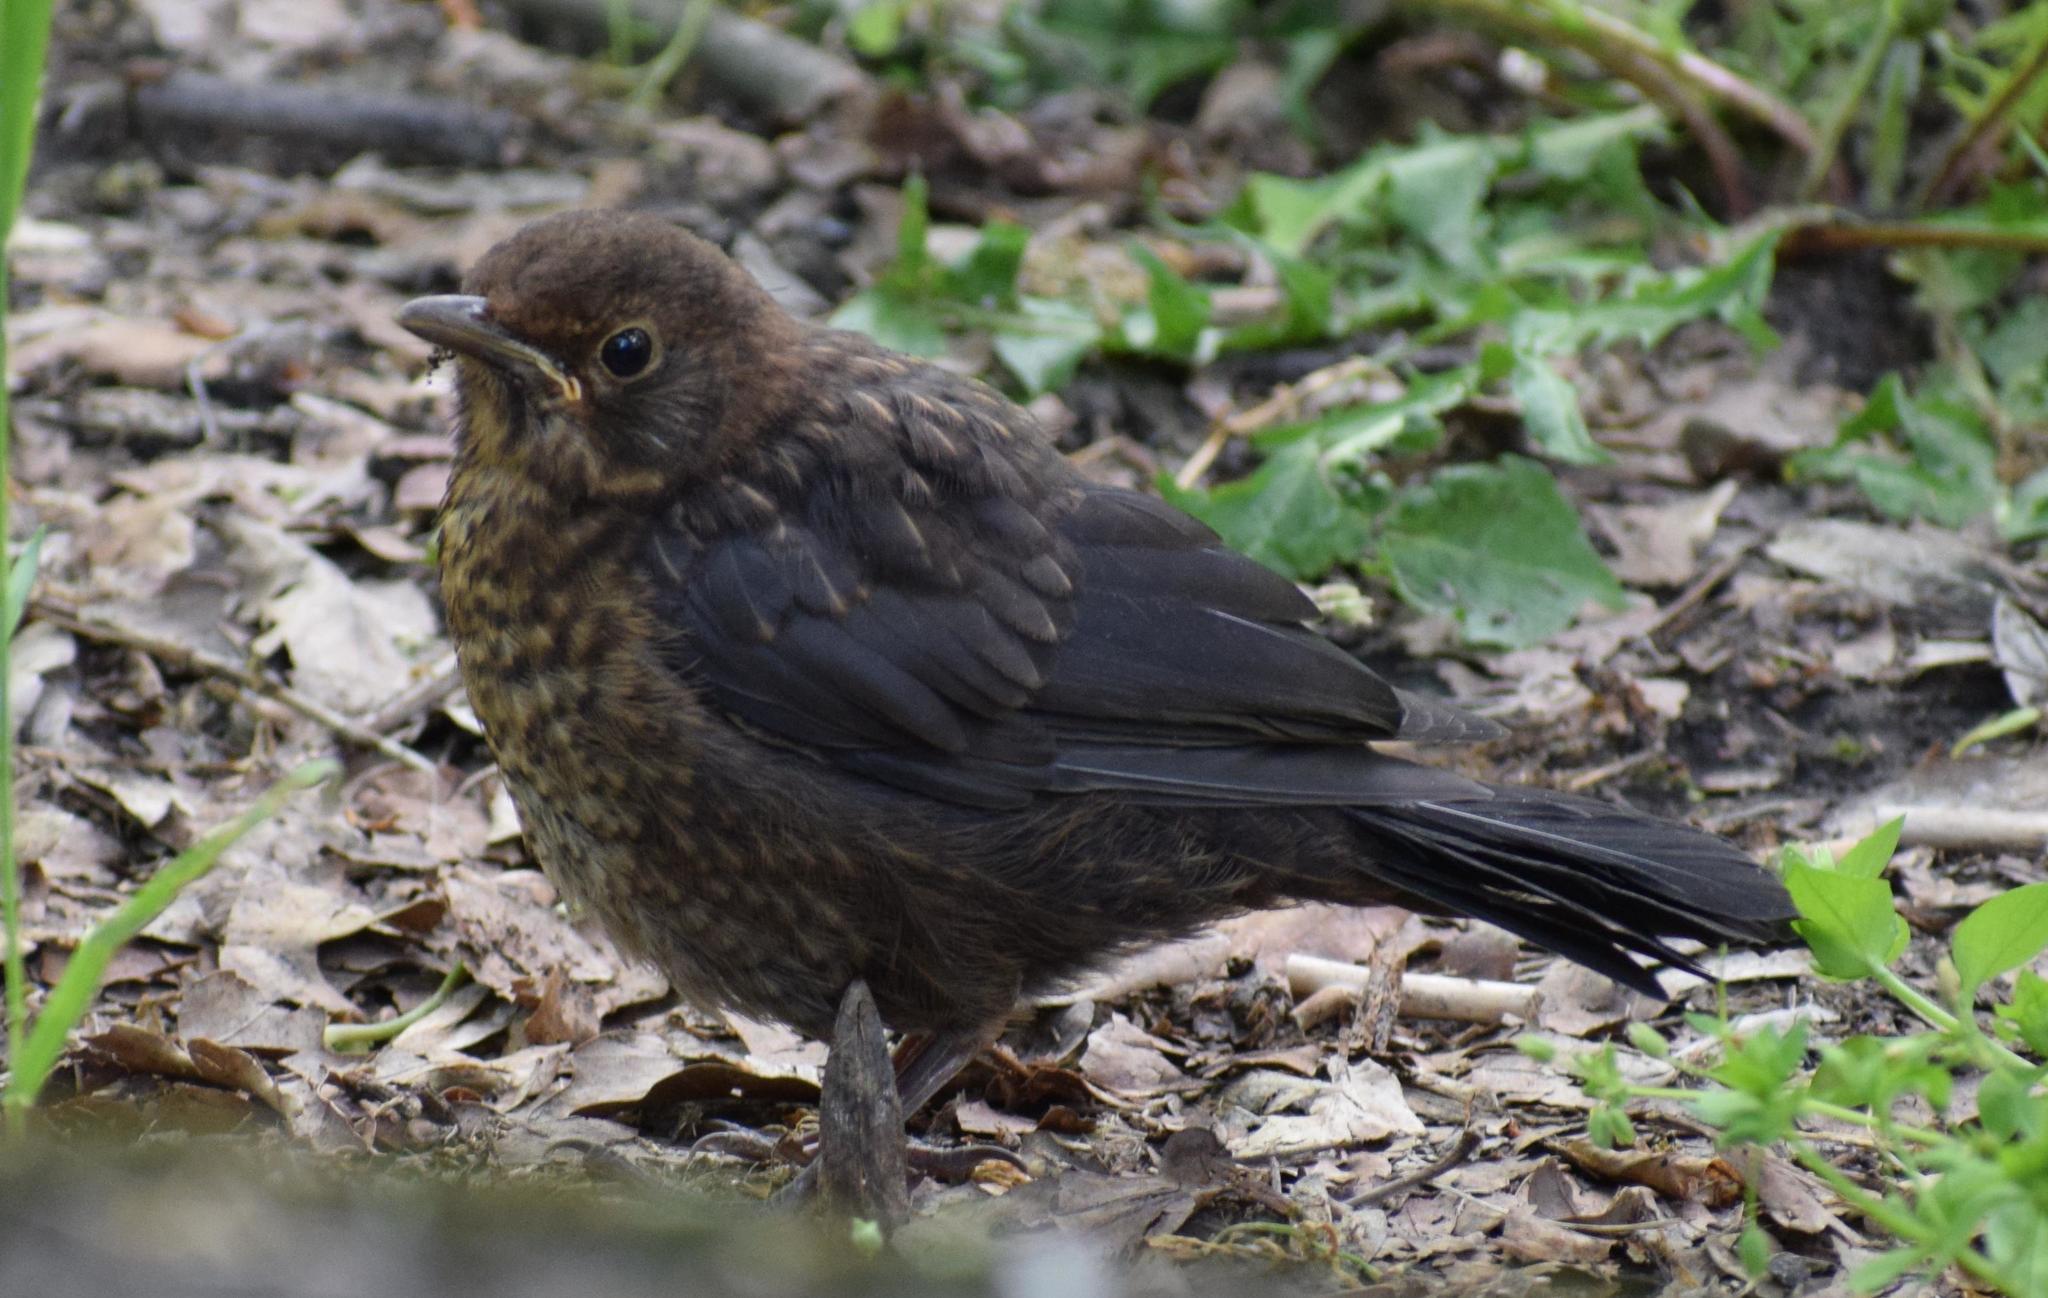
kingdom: Animalia
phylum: Chordata
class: Aves
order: Passeriformes
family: Turdidae
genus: Turdus
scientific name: Turdus merula
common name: Common blackbird
